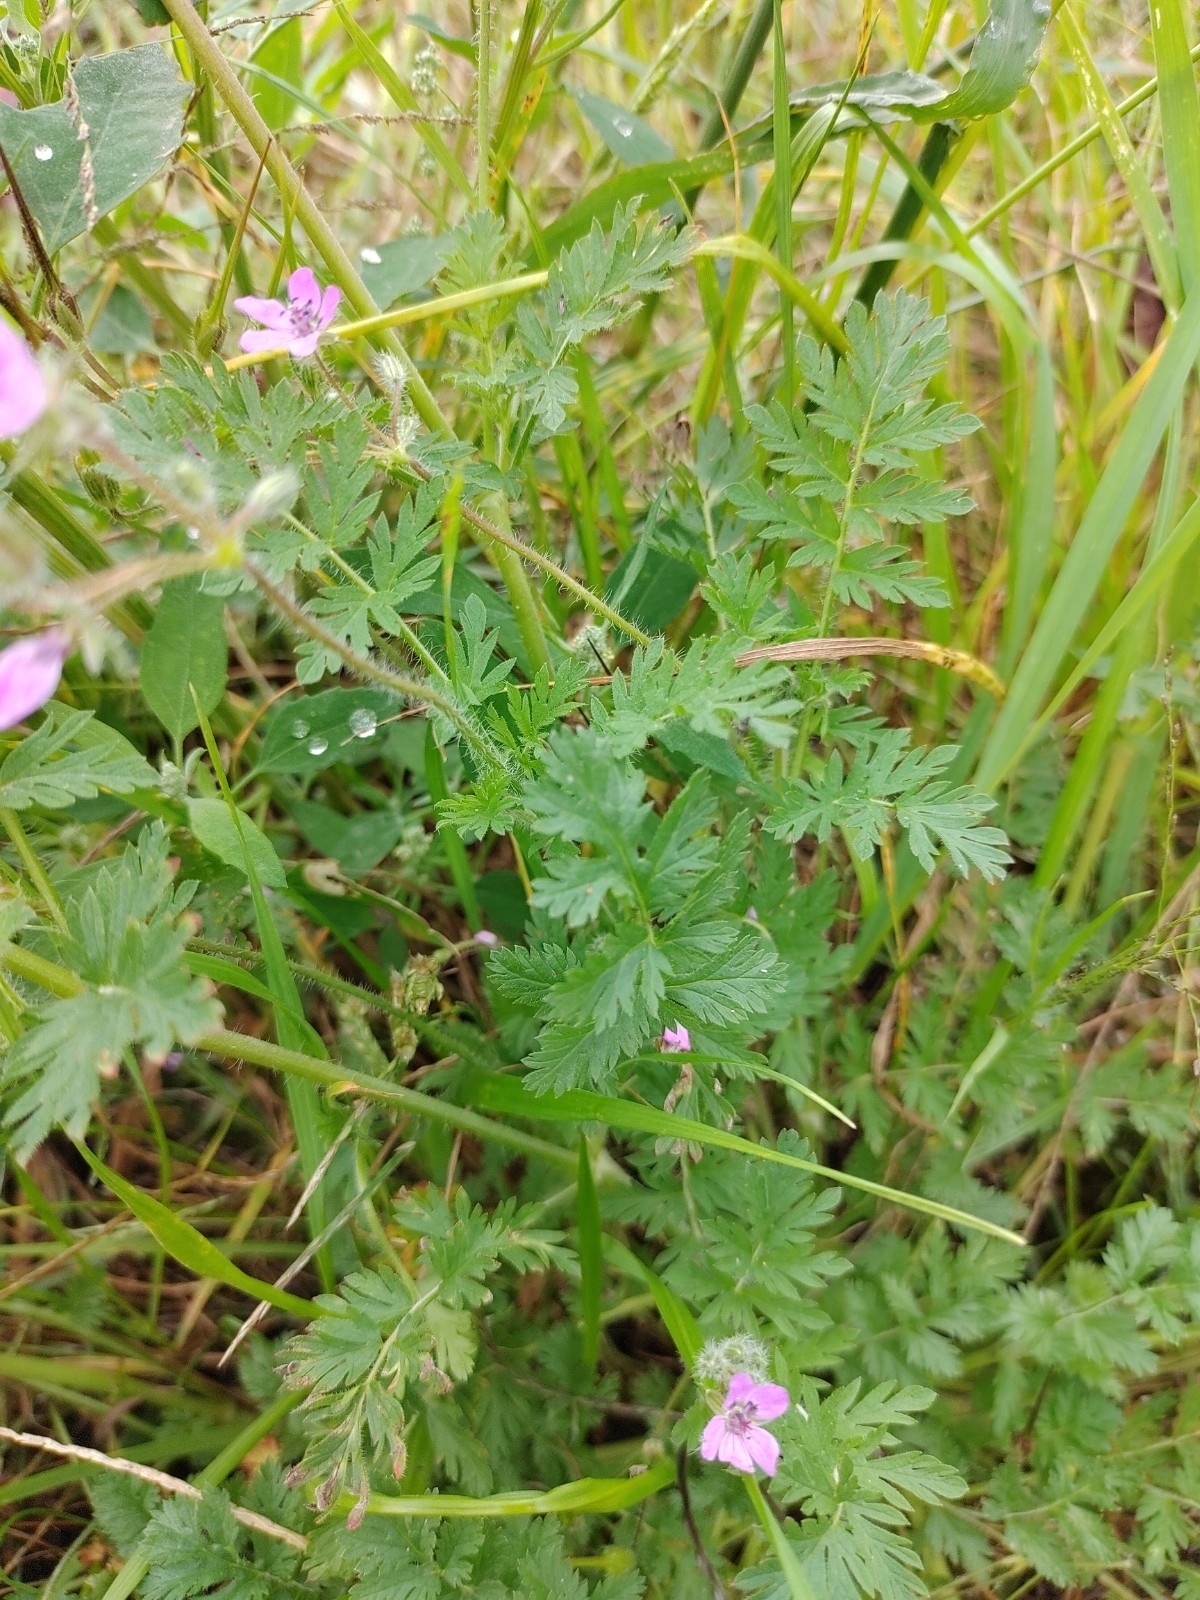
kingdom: Plantae
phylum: Tracheophyta
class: Magnoliopsida
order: Geraniales
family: Geraniaceae
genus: Erodium
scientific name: Erodium cicutarium
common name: Common stork's-bill
